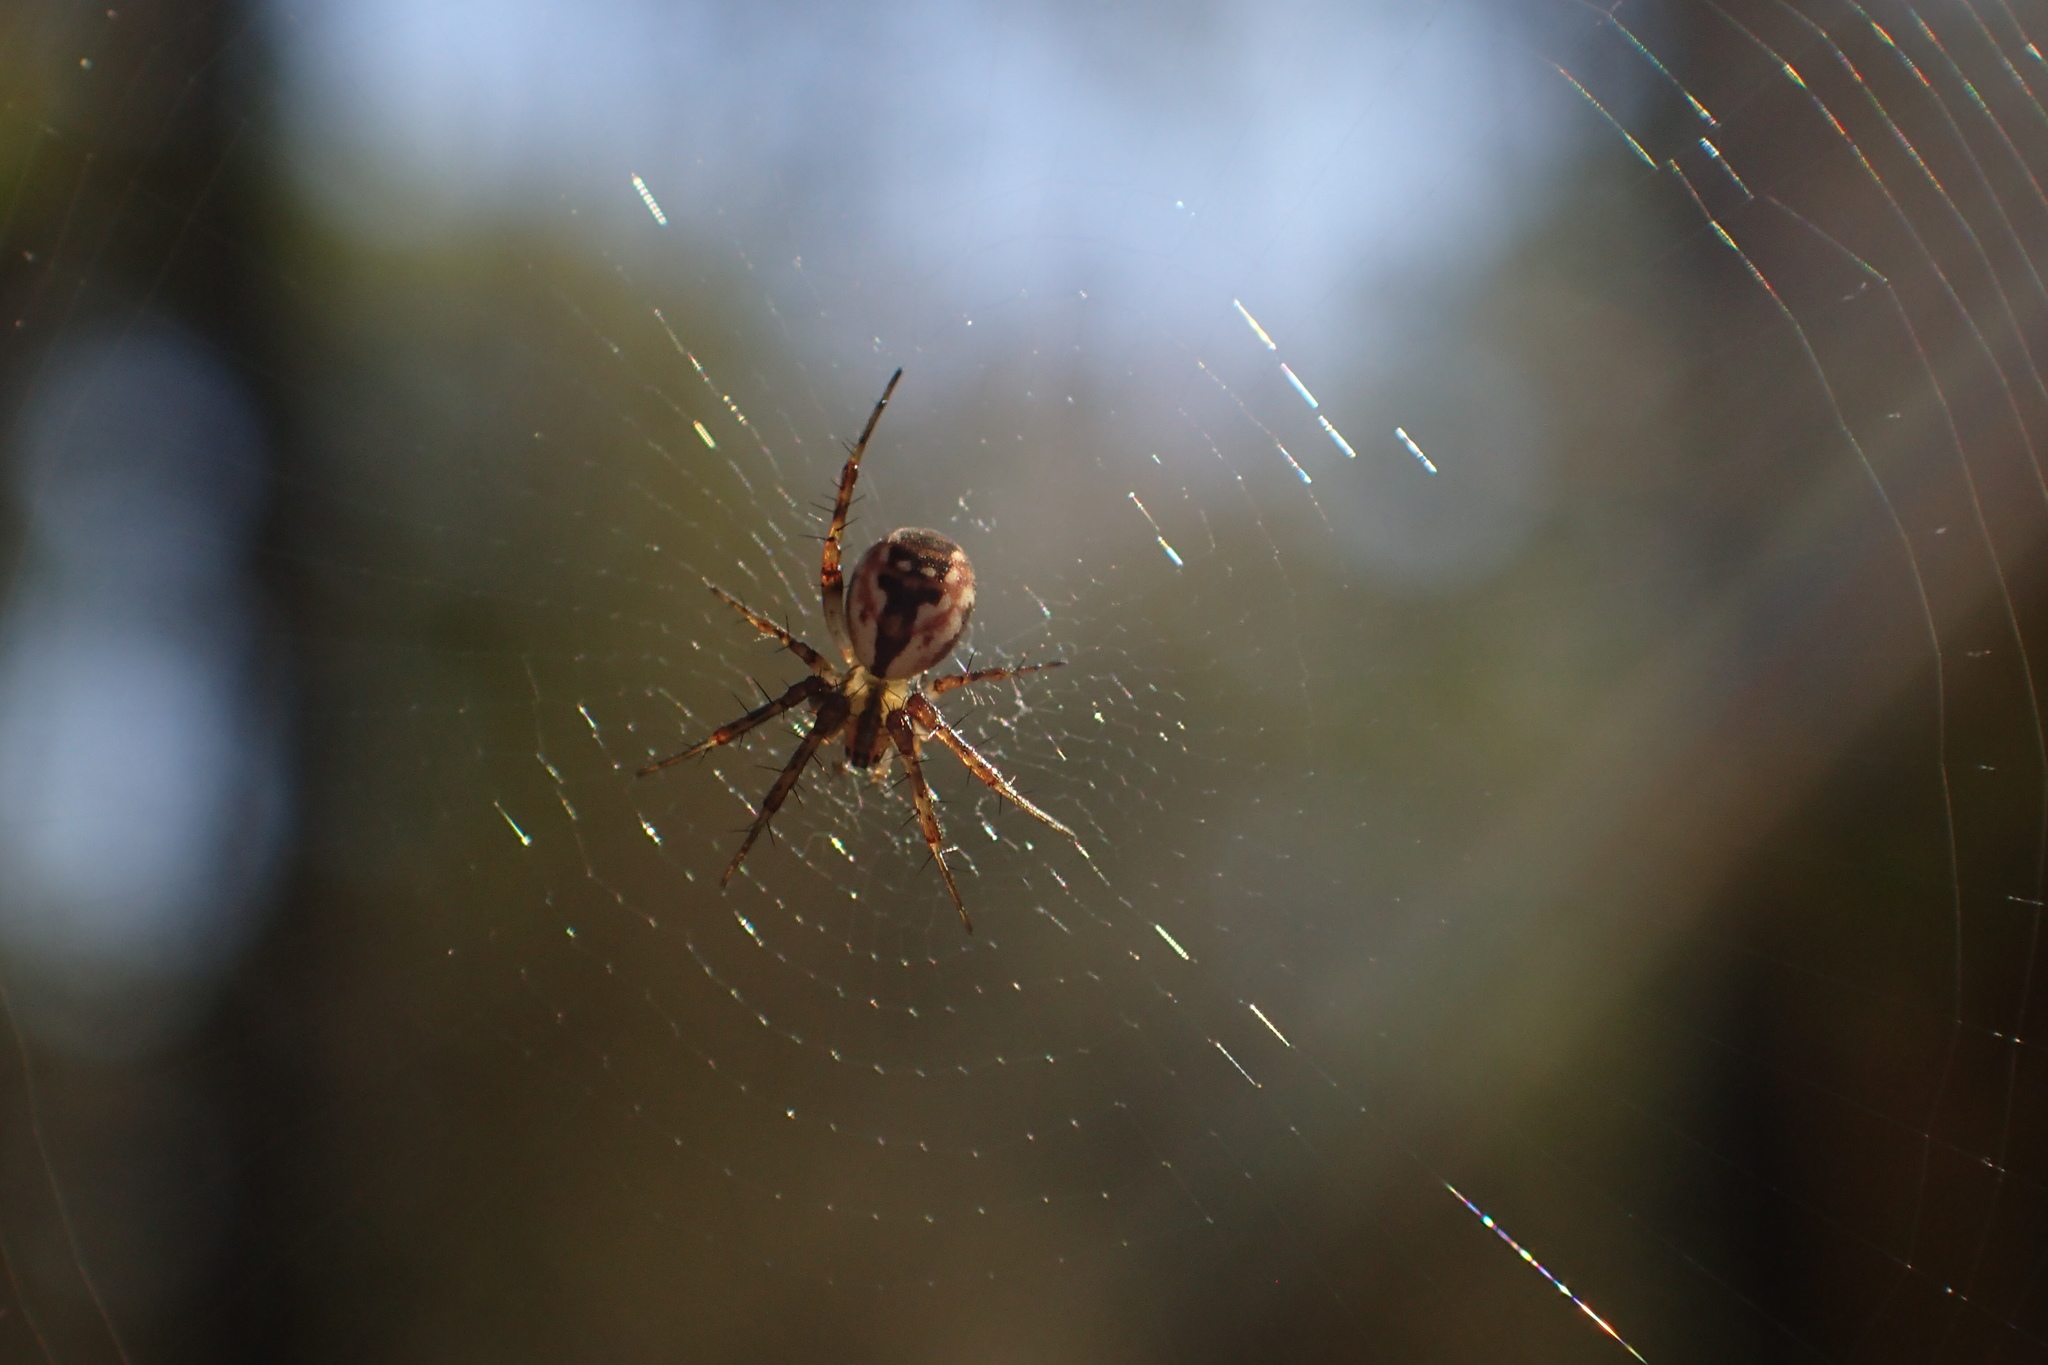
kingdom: Animalia
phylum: Arthropoda
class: Arachnida
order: Araneae
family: Araneidae
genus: Mangora
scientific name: Mangora placida
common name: Tuft-legged orbweaver
